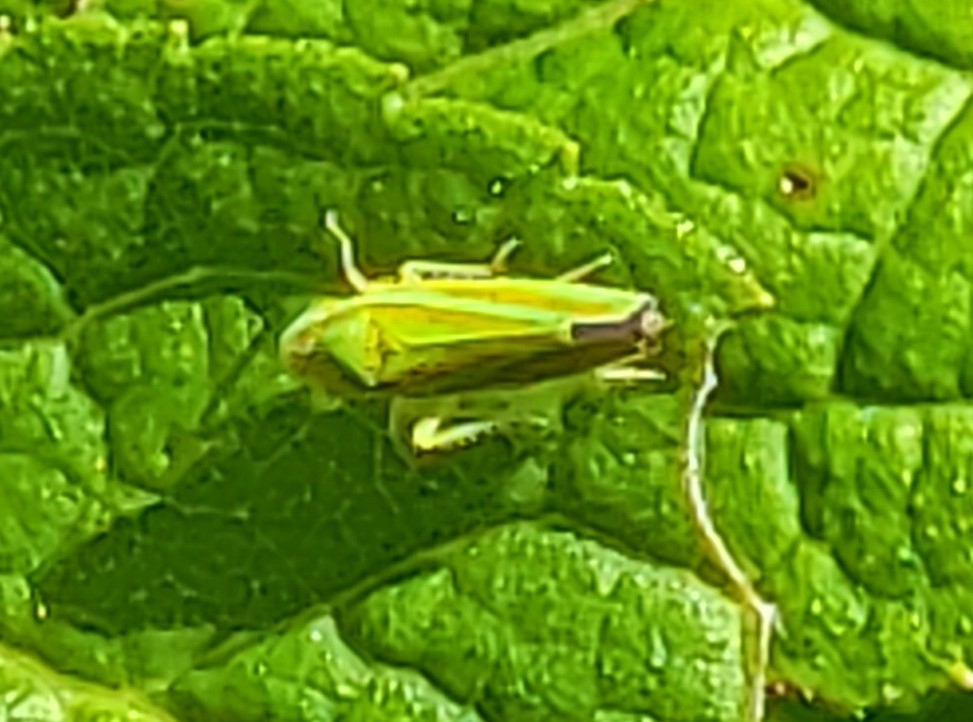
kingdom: Animalia
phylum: Arthropoda
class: Insecta
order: Hemiptera
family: Cicadellidae
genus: Graphocephala
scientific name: Graphocephala versuta
